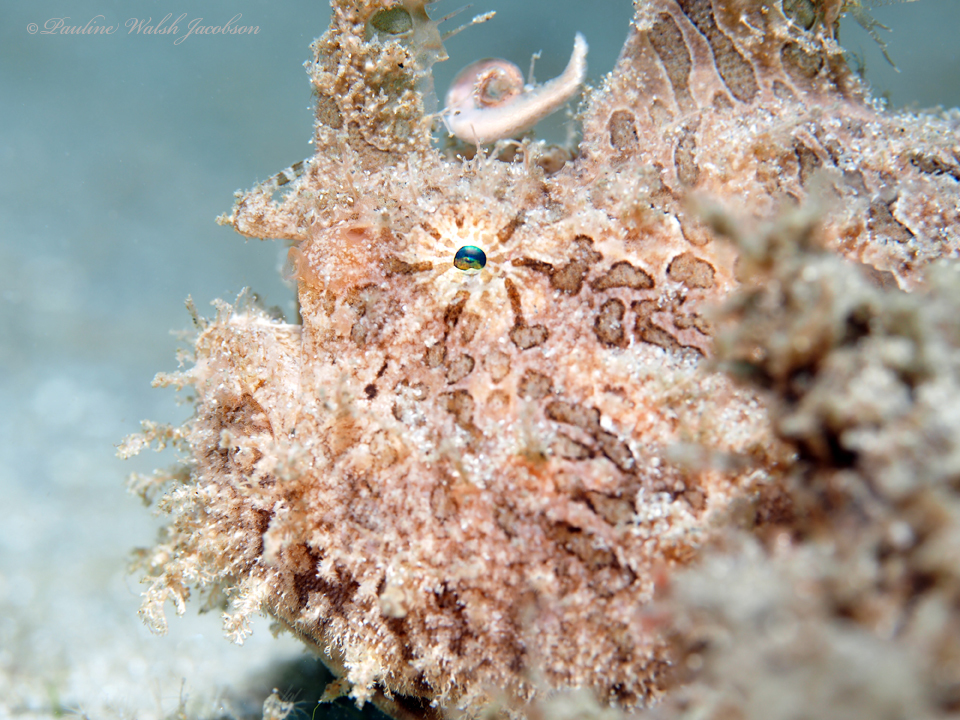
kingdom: Animalia
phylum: Chordata
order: Lophiiformes
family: Antennariidae
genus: Antennarius
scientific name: Antennarius striatus
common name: Striated frogfish
